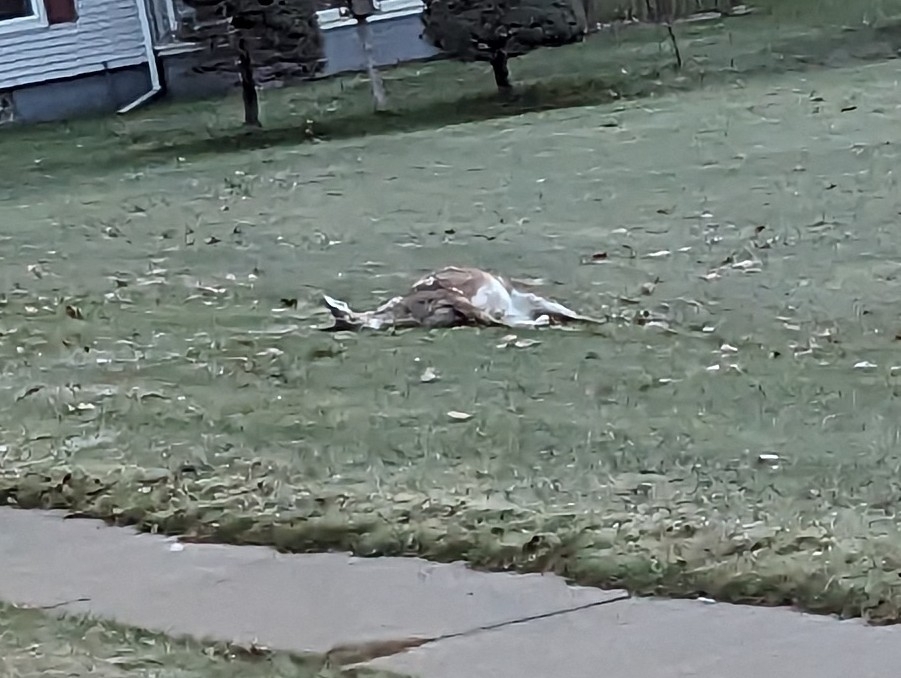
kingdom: Animalia
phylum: Chordata
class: Mammalia
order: Artiodactyla
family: Cervidae
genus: Odocoileus
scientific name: Odocoileus virginianus
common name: White-tailed deer
